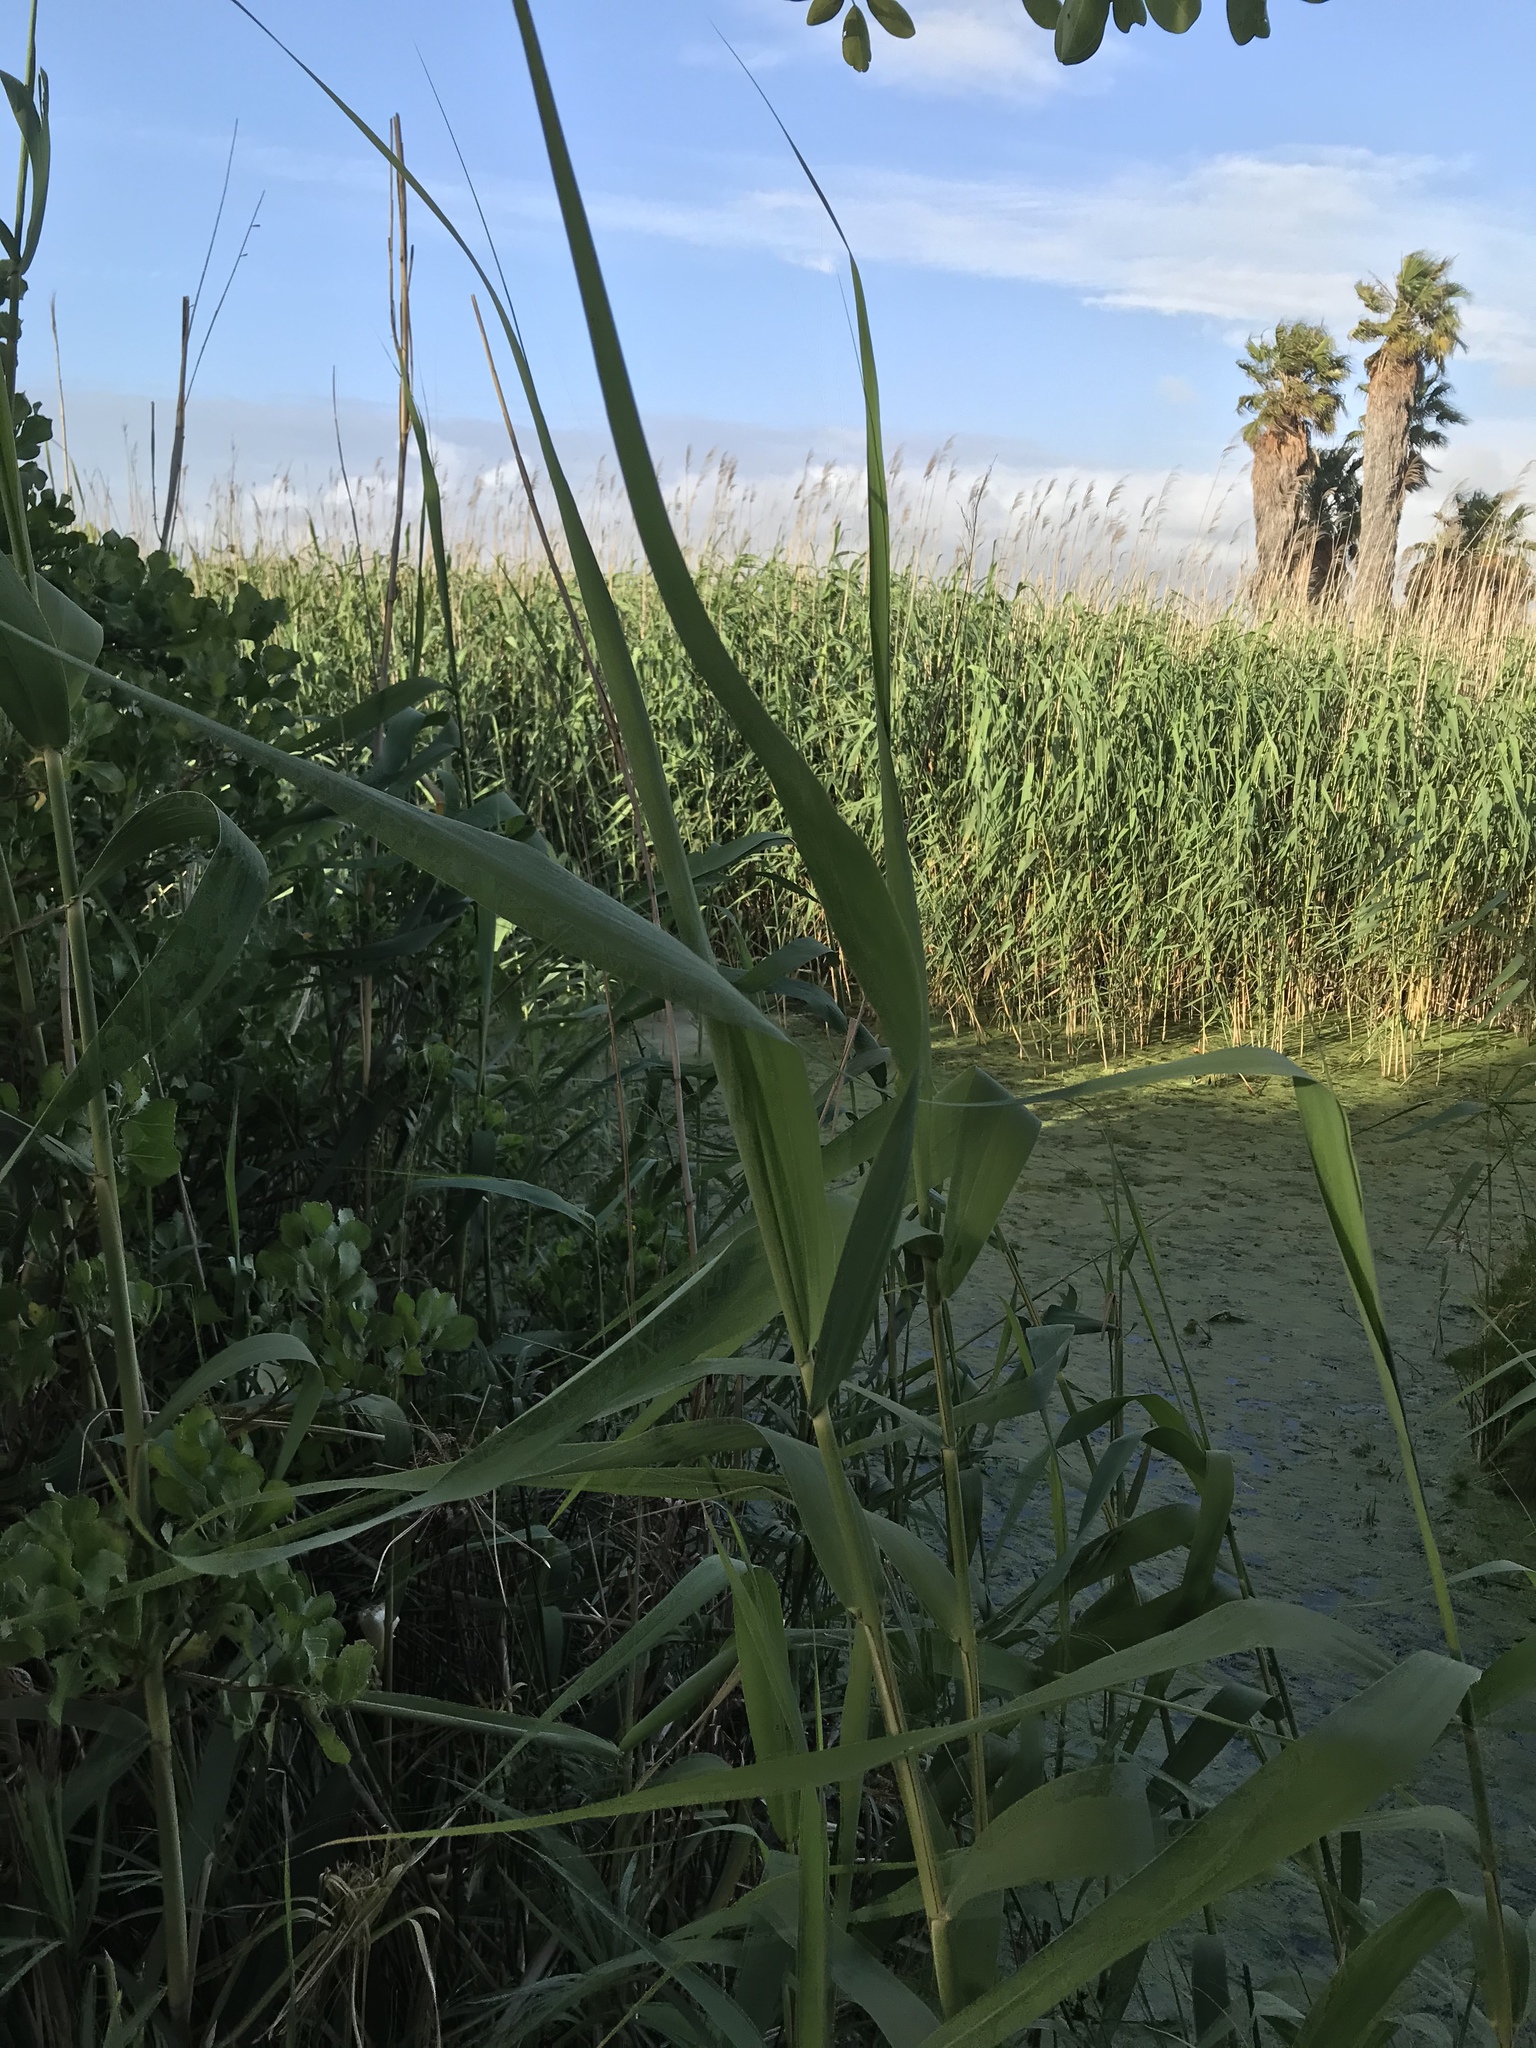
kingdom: Plantae
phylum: Tracheophyta
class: Liliopsida
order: Poales
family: Poaceae
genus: Phragmites
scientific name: Phragmites australis
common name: Common reed
